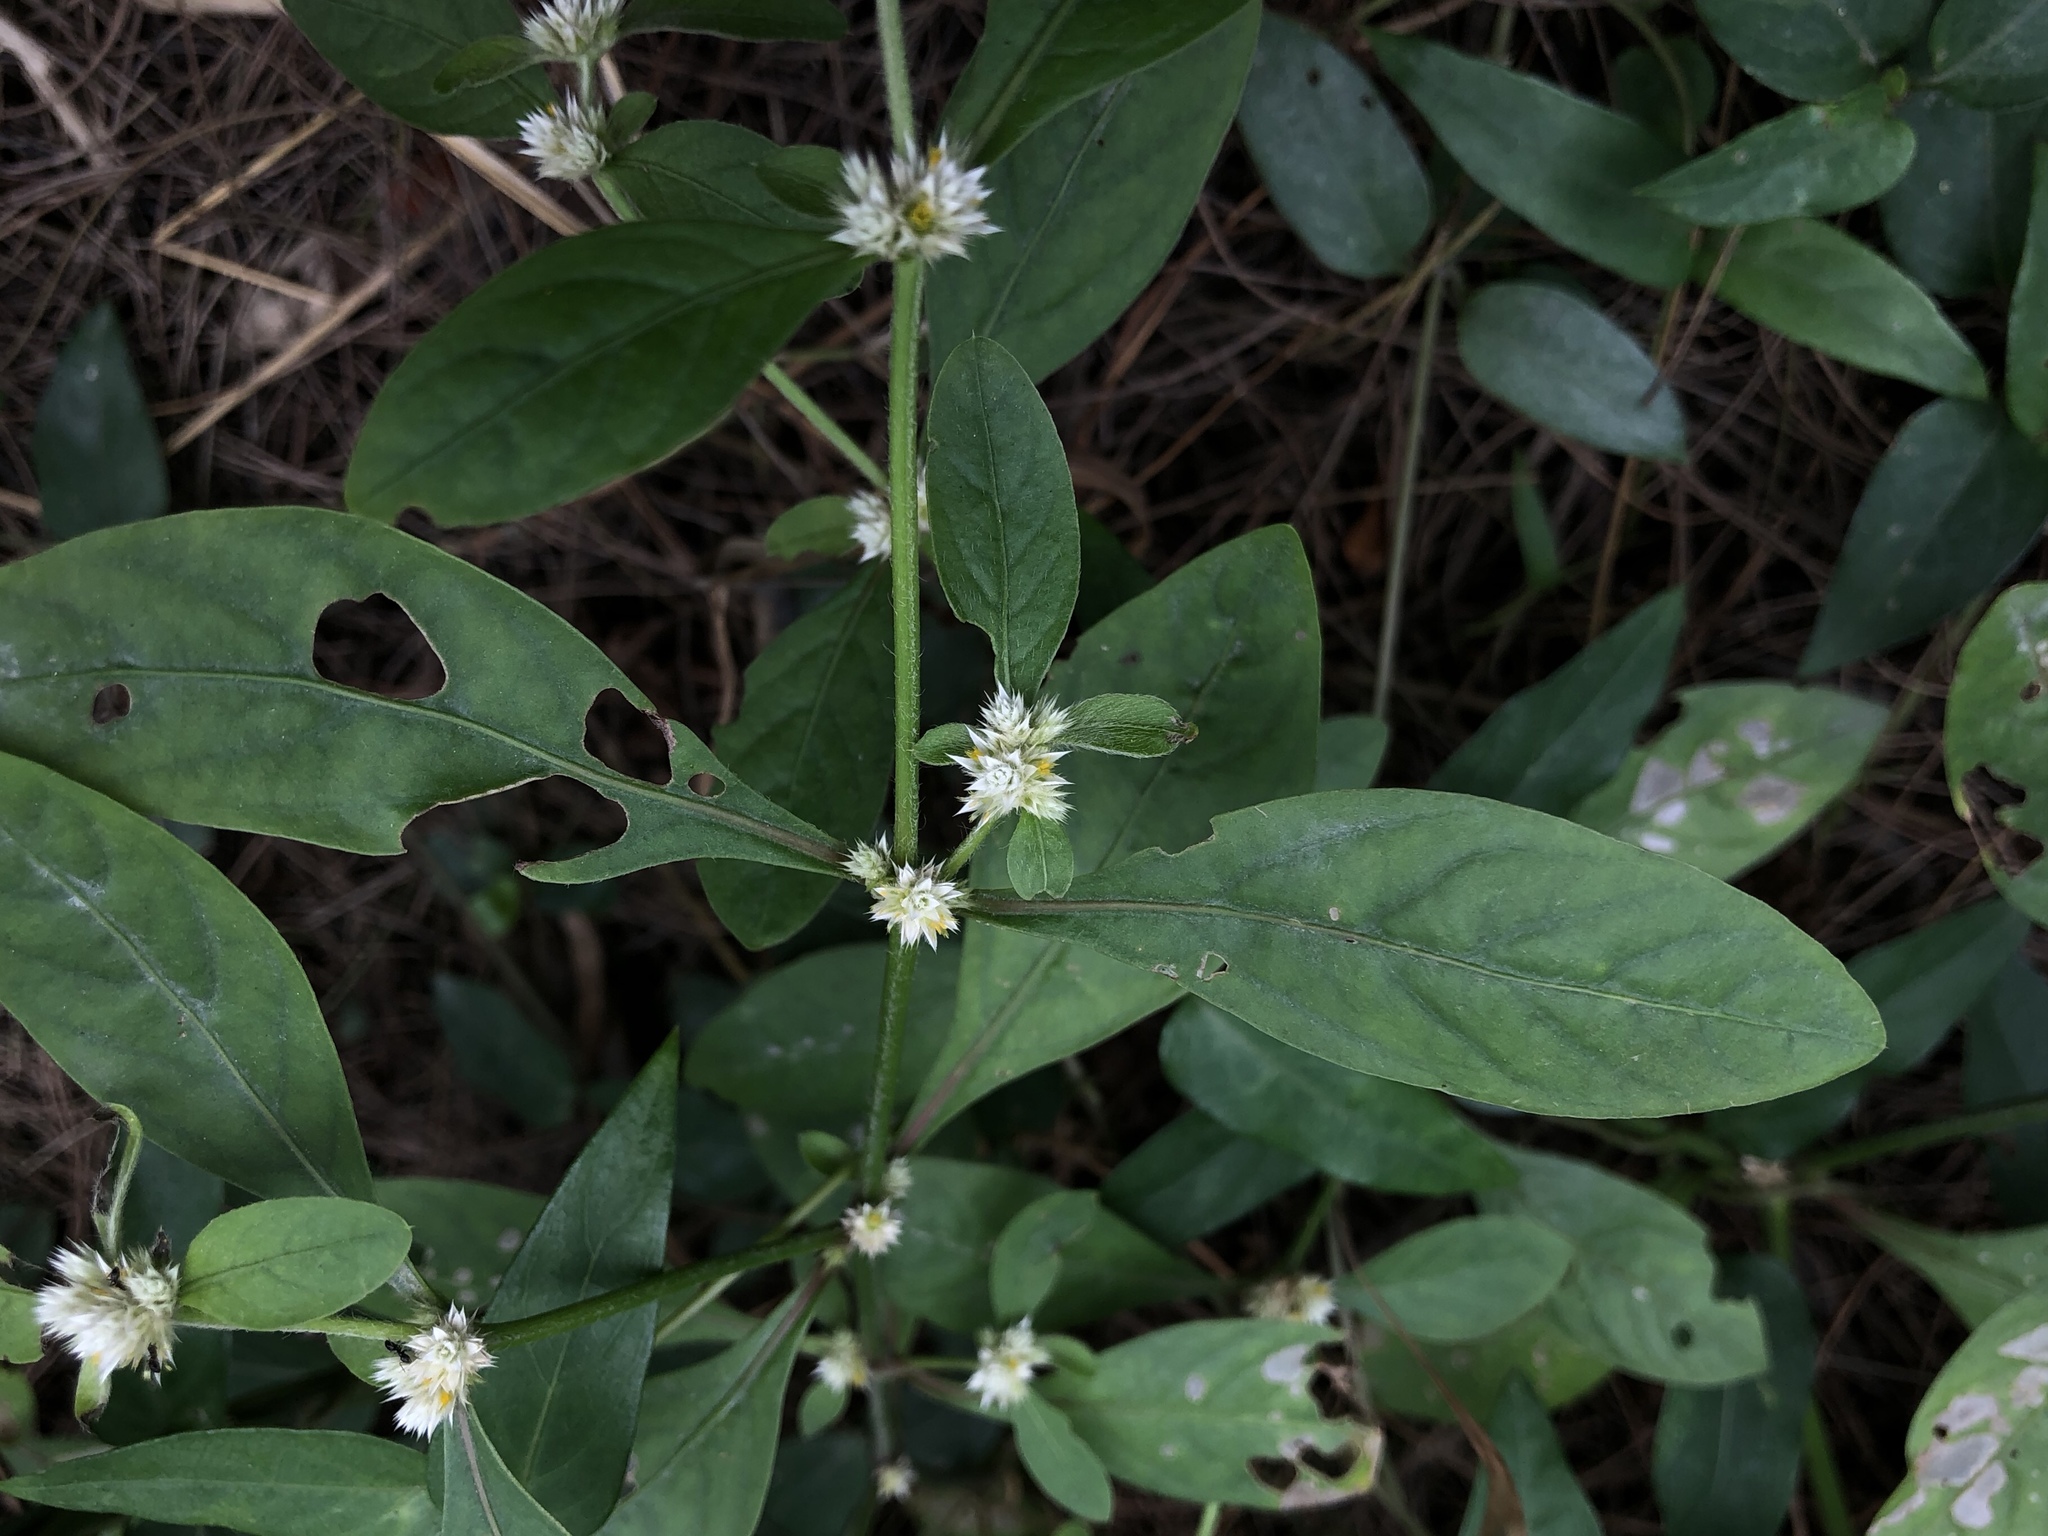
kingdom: Plantae
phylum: Tracheophyta
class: Magnoliopsida
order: Caryophyllales
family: Amaranthaceae
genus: Alternanthera
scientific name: Alternanthera sessilis
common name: Sessile joyweed
